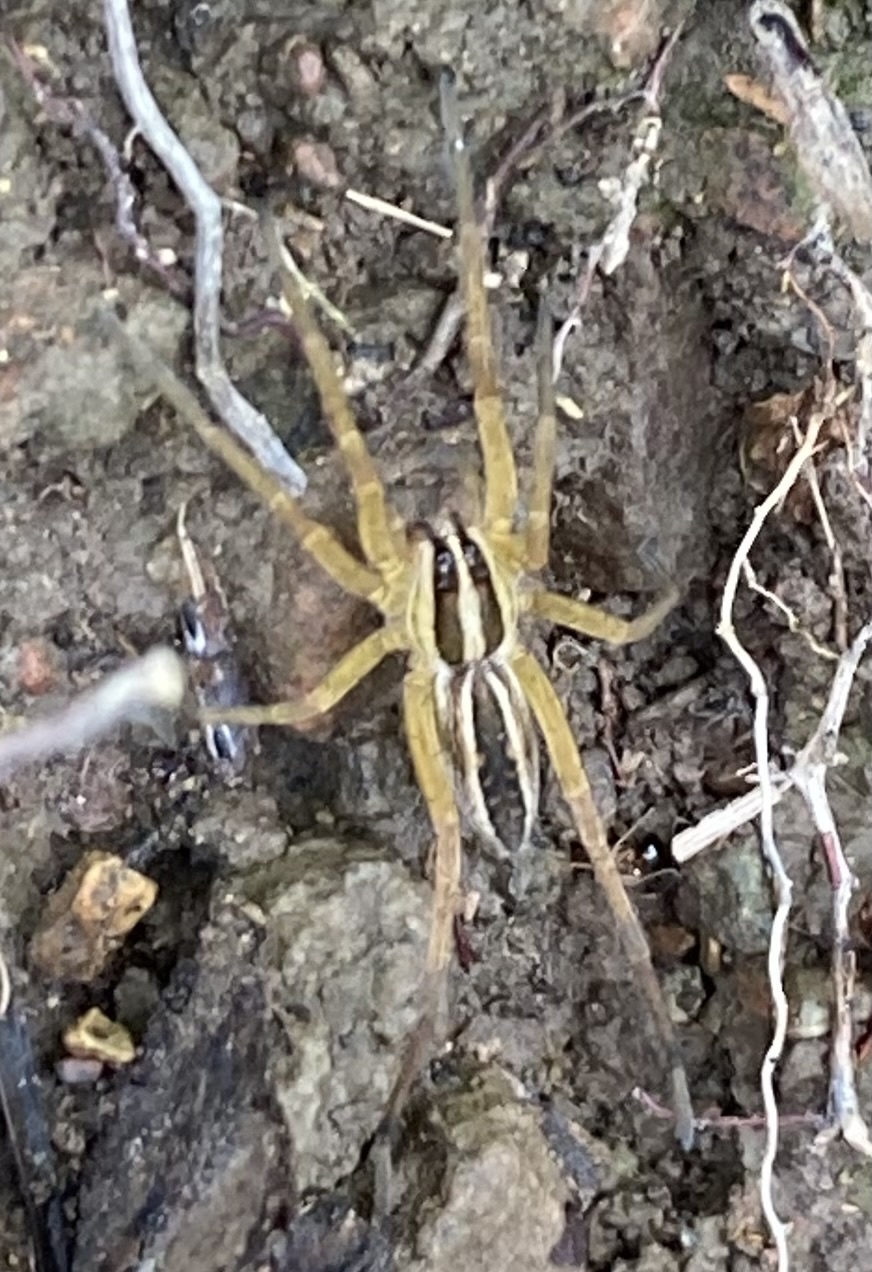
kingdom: Animalia
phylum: Arthropoda
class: Arachnida
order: Araneae
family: Lycosidae
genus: Rabidosa
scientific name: Rabidosa rabida
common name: Rabid wolf spider
